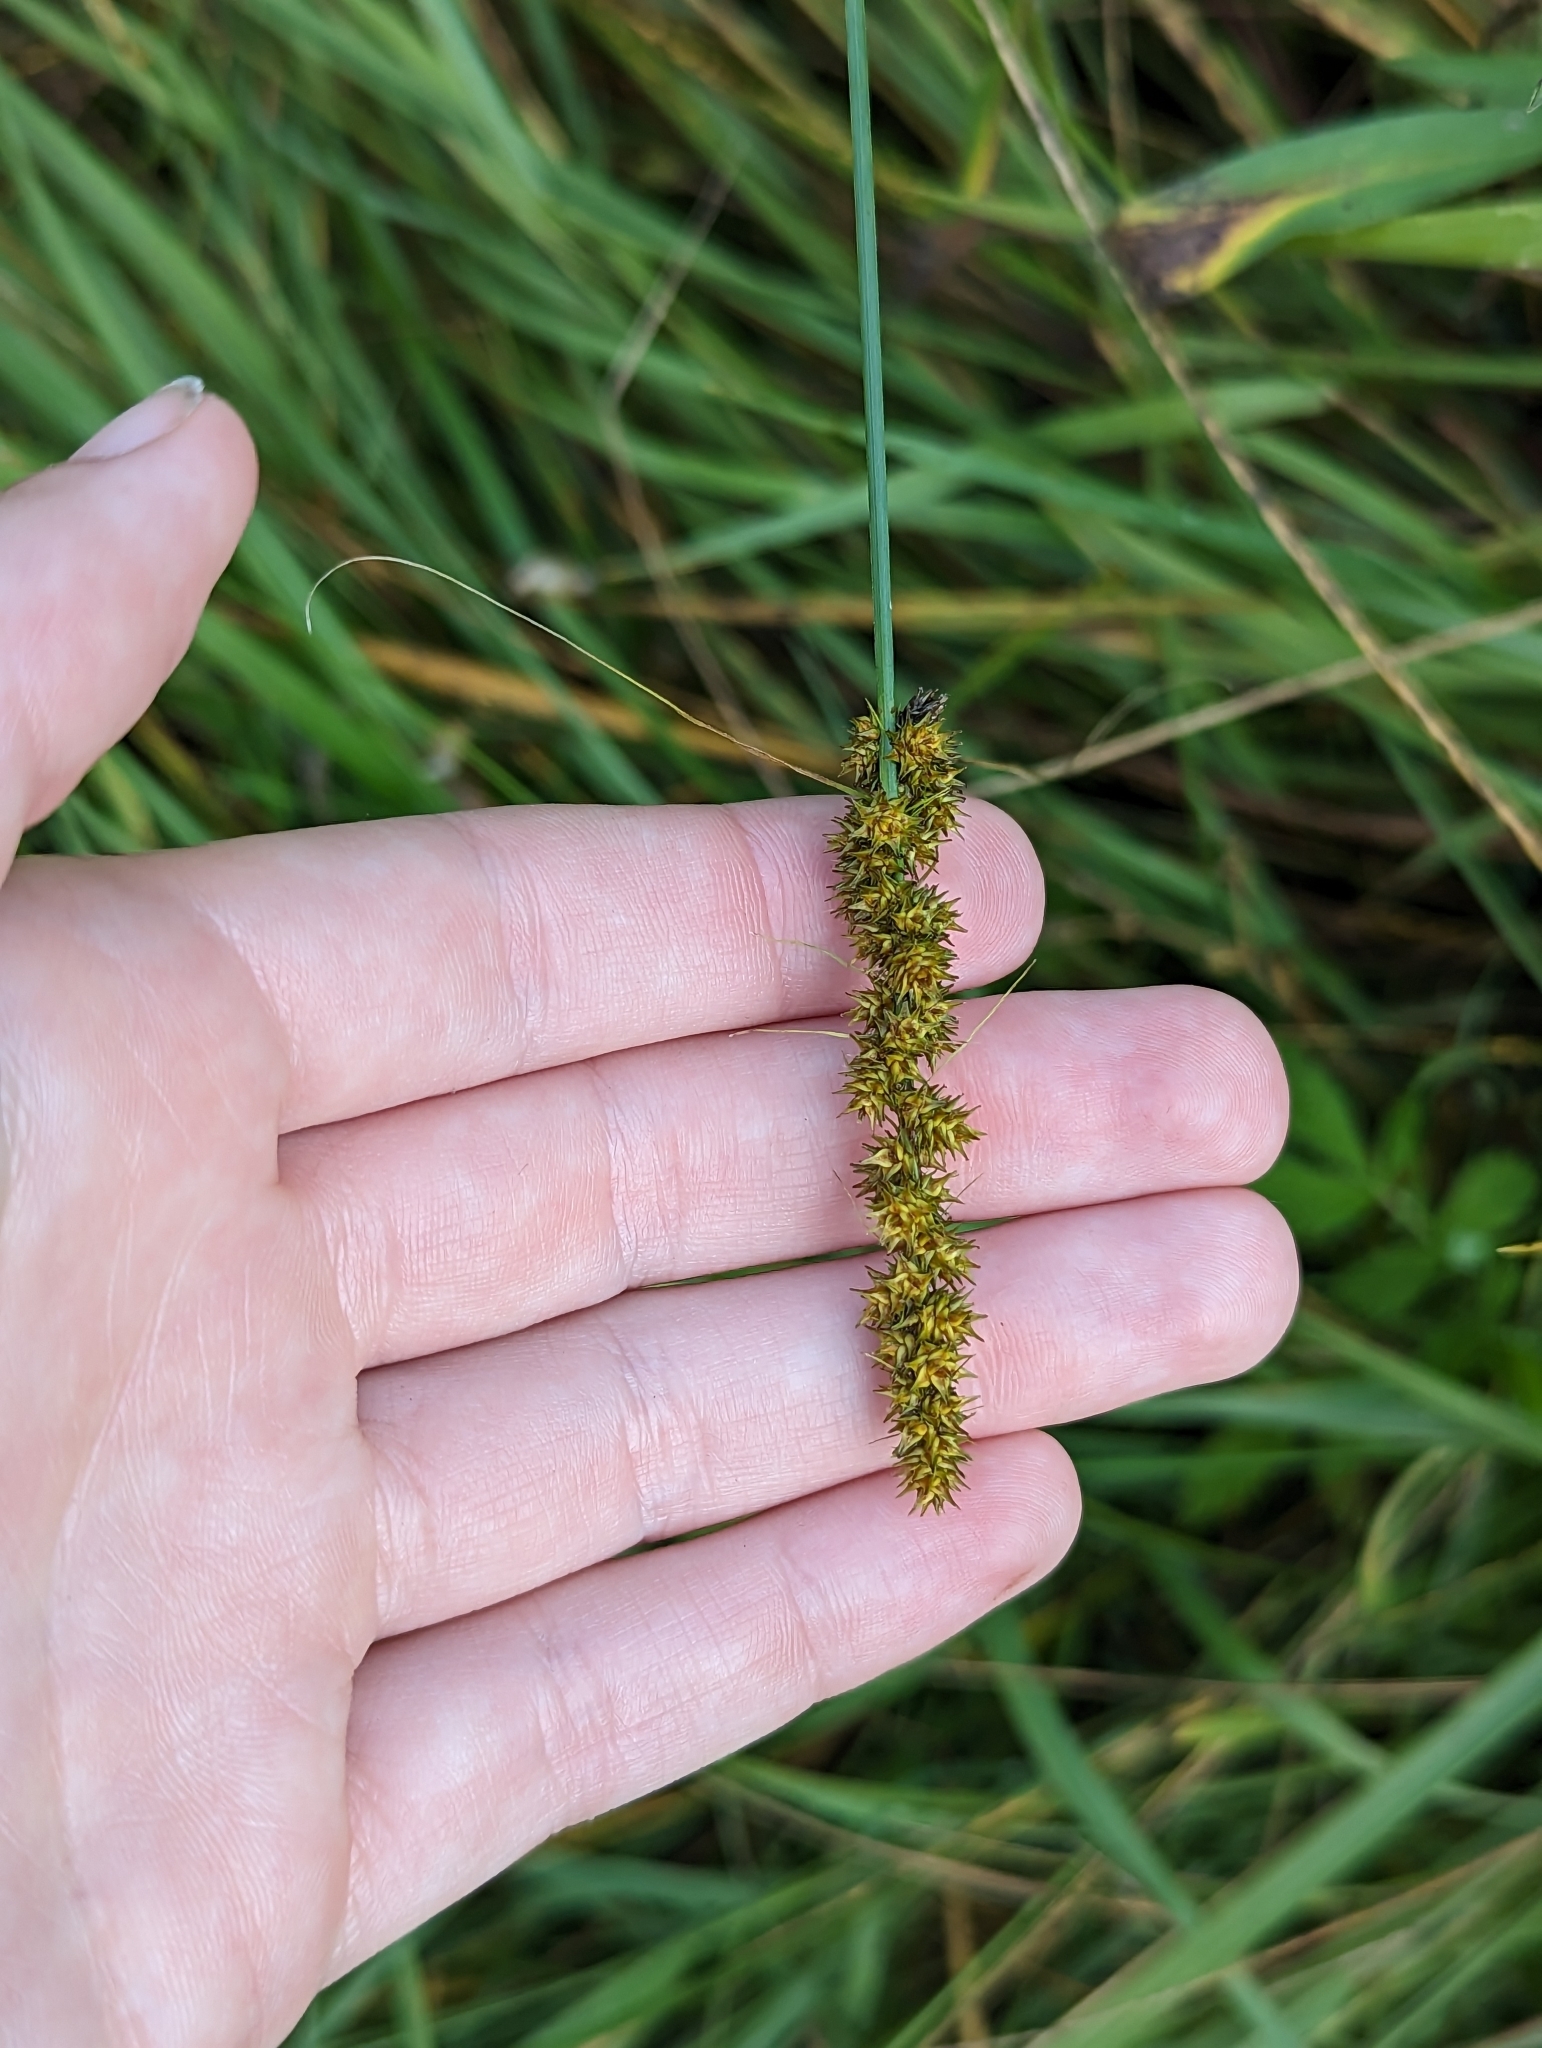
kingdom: Plantae
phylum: Tracheophyta
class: Liliopsida
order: Poales
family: Cyperaceae
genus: Carex
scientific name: Carex vulpinoidea
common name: American fox-sedge
